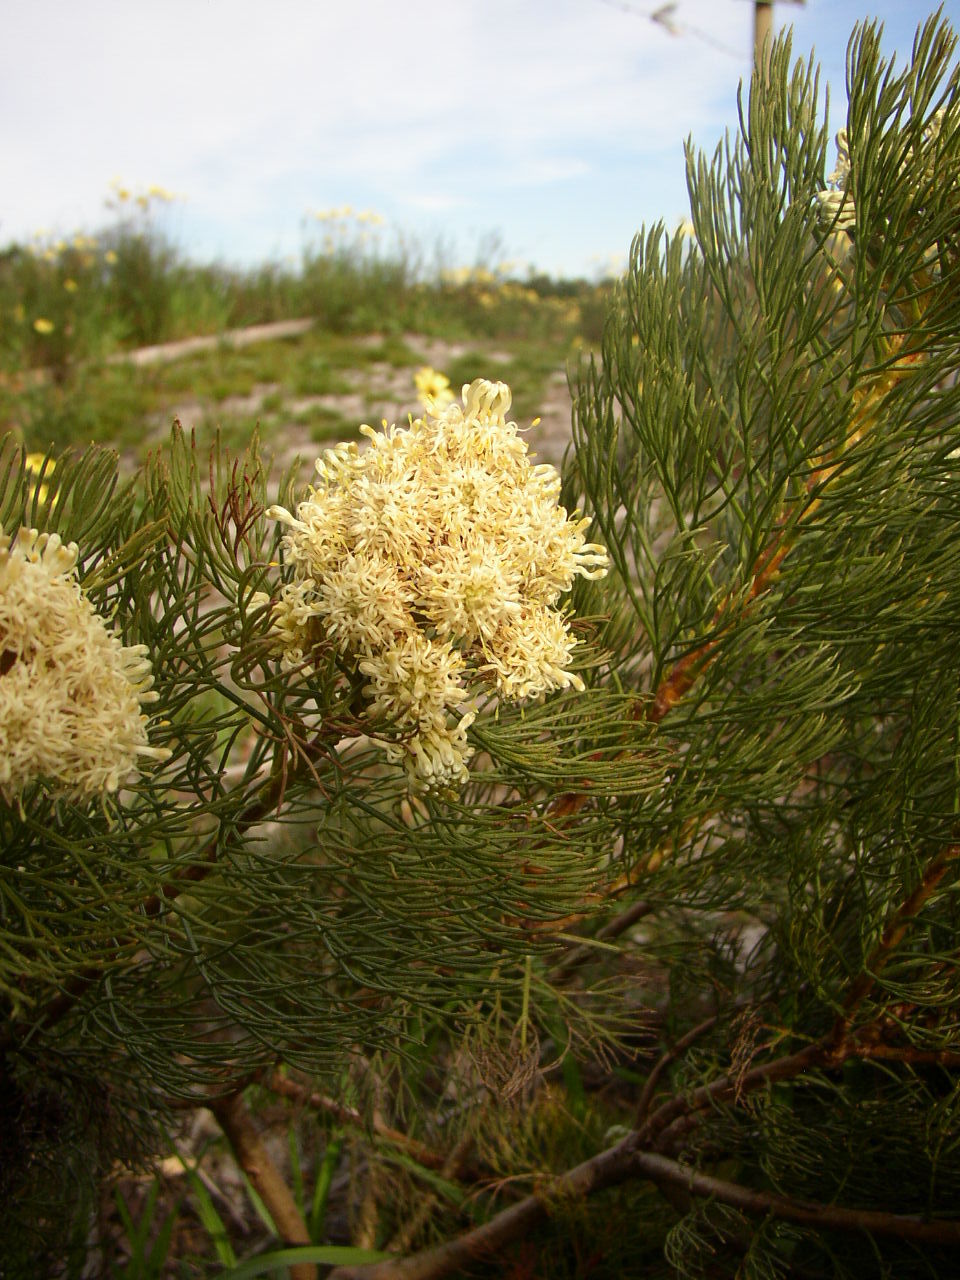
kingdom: Plantae
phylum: Tracheophyta
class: Magnoliopsida
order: Proteales
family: Proteaceae
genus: Serruria
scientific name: Serruria glomerata
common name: Cluster spiderhead
